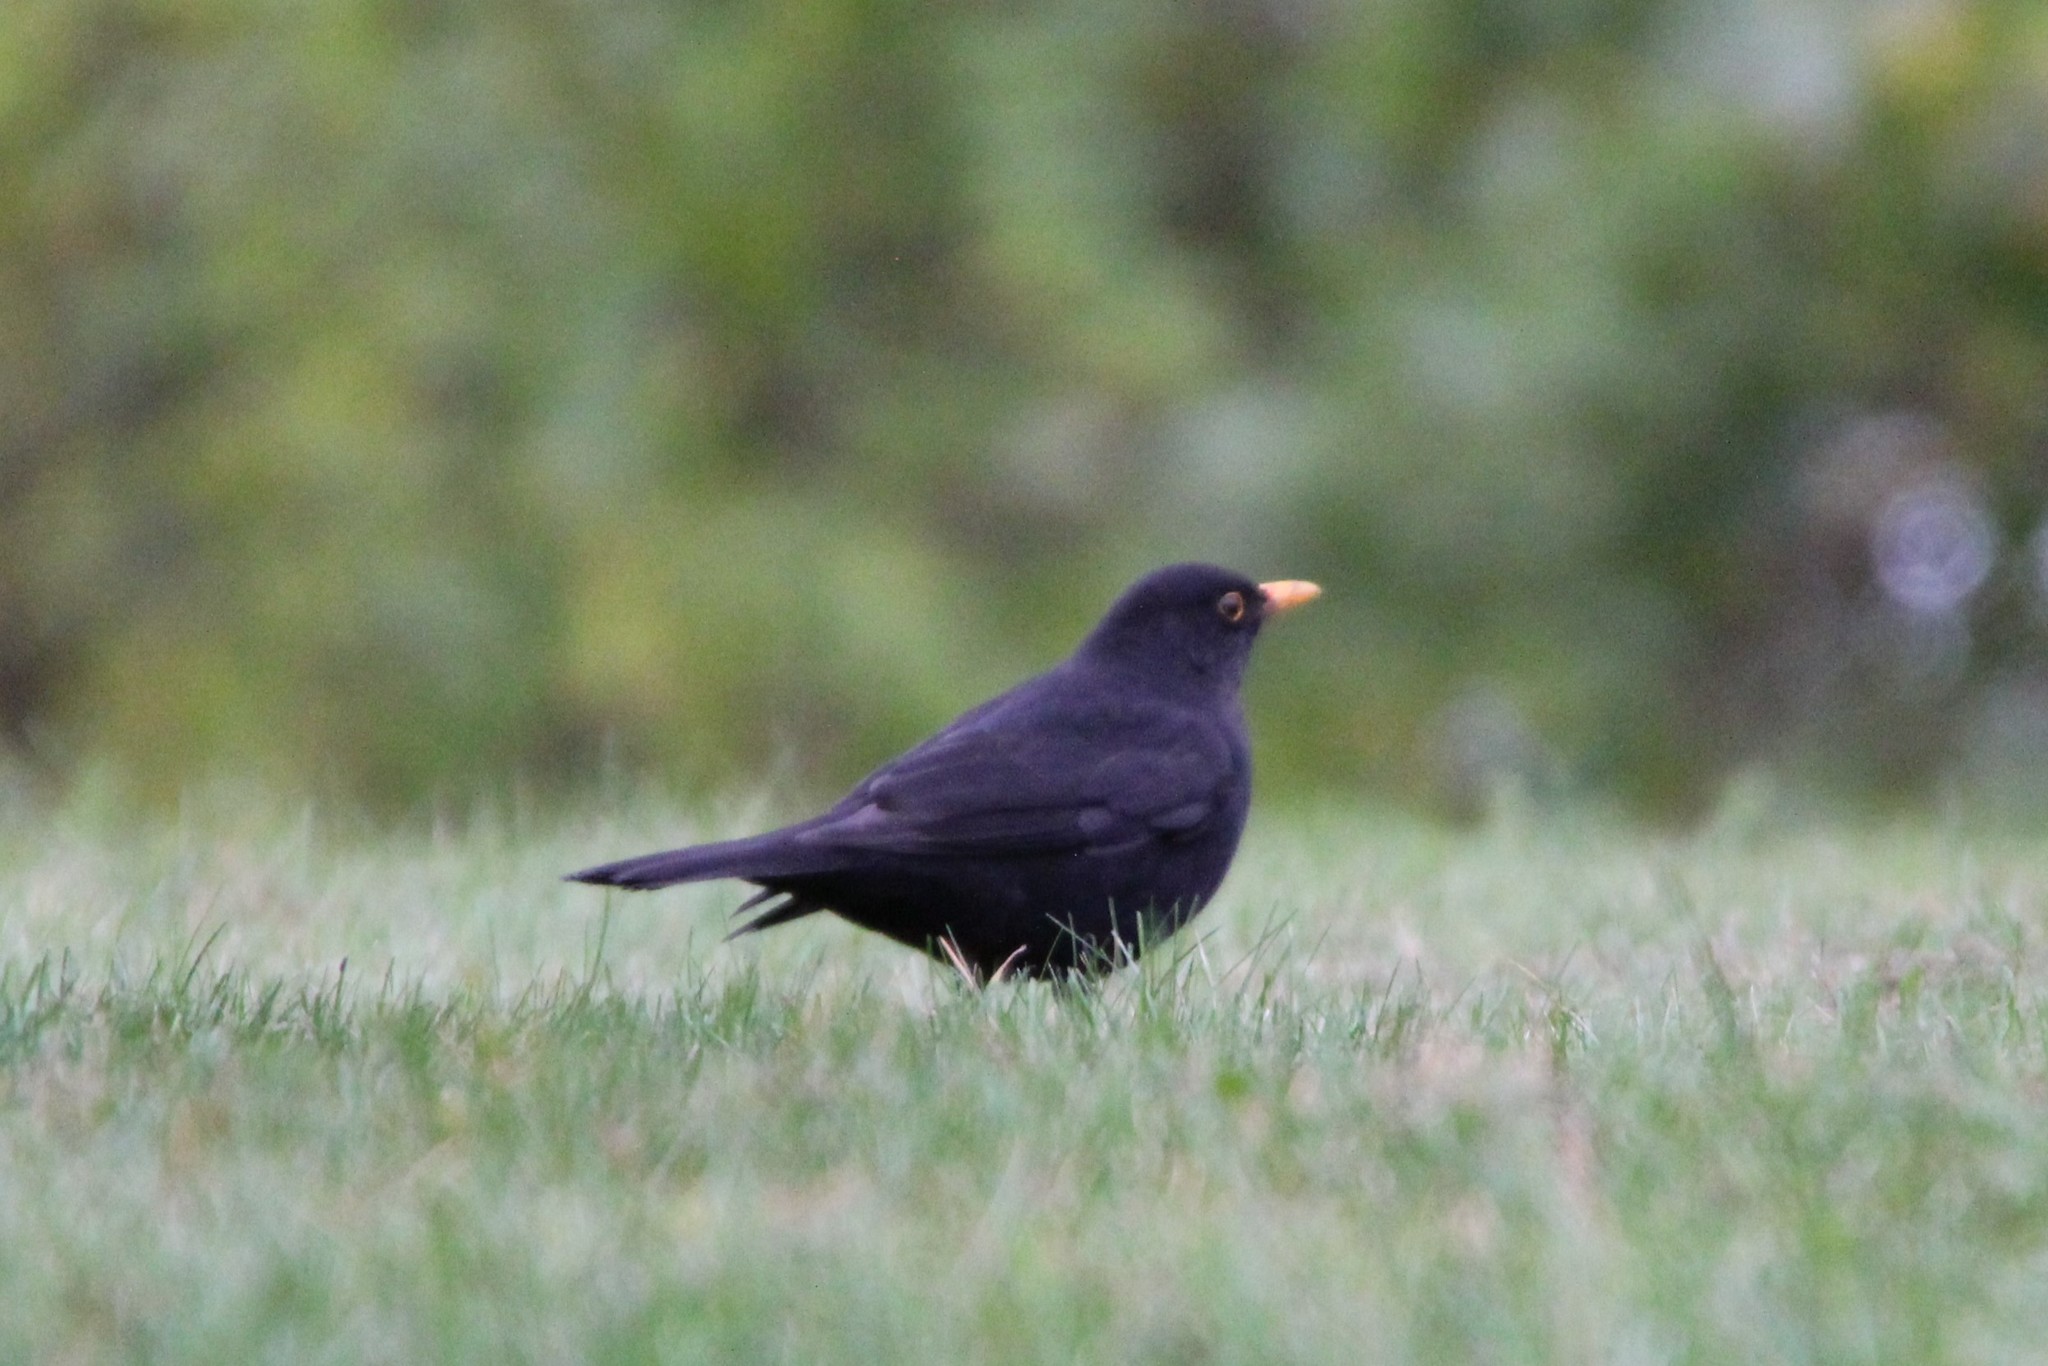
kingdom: Animalia
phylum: Chordata
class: Aves
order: Passeriformes
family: Turdidae
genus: Turdus
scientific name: Turdus merula
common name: Common blackbird
